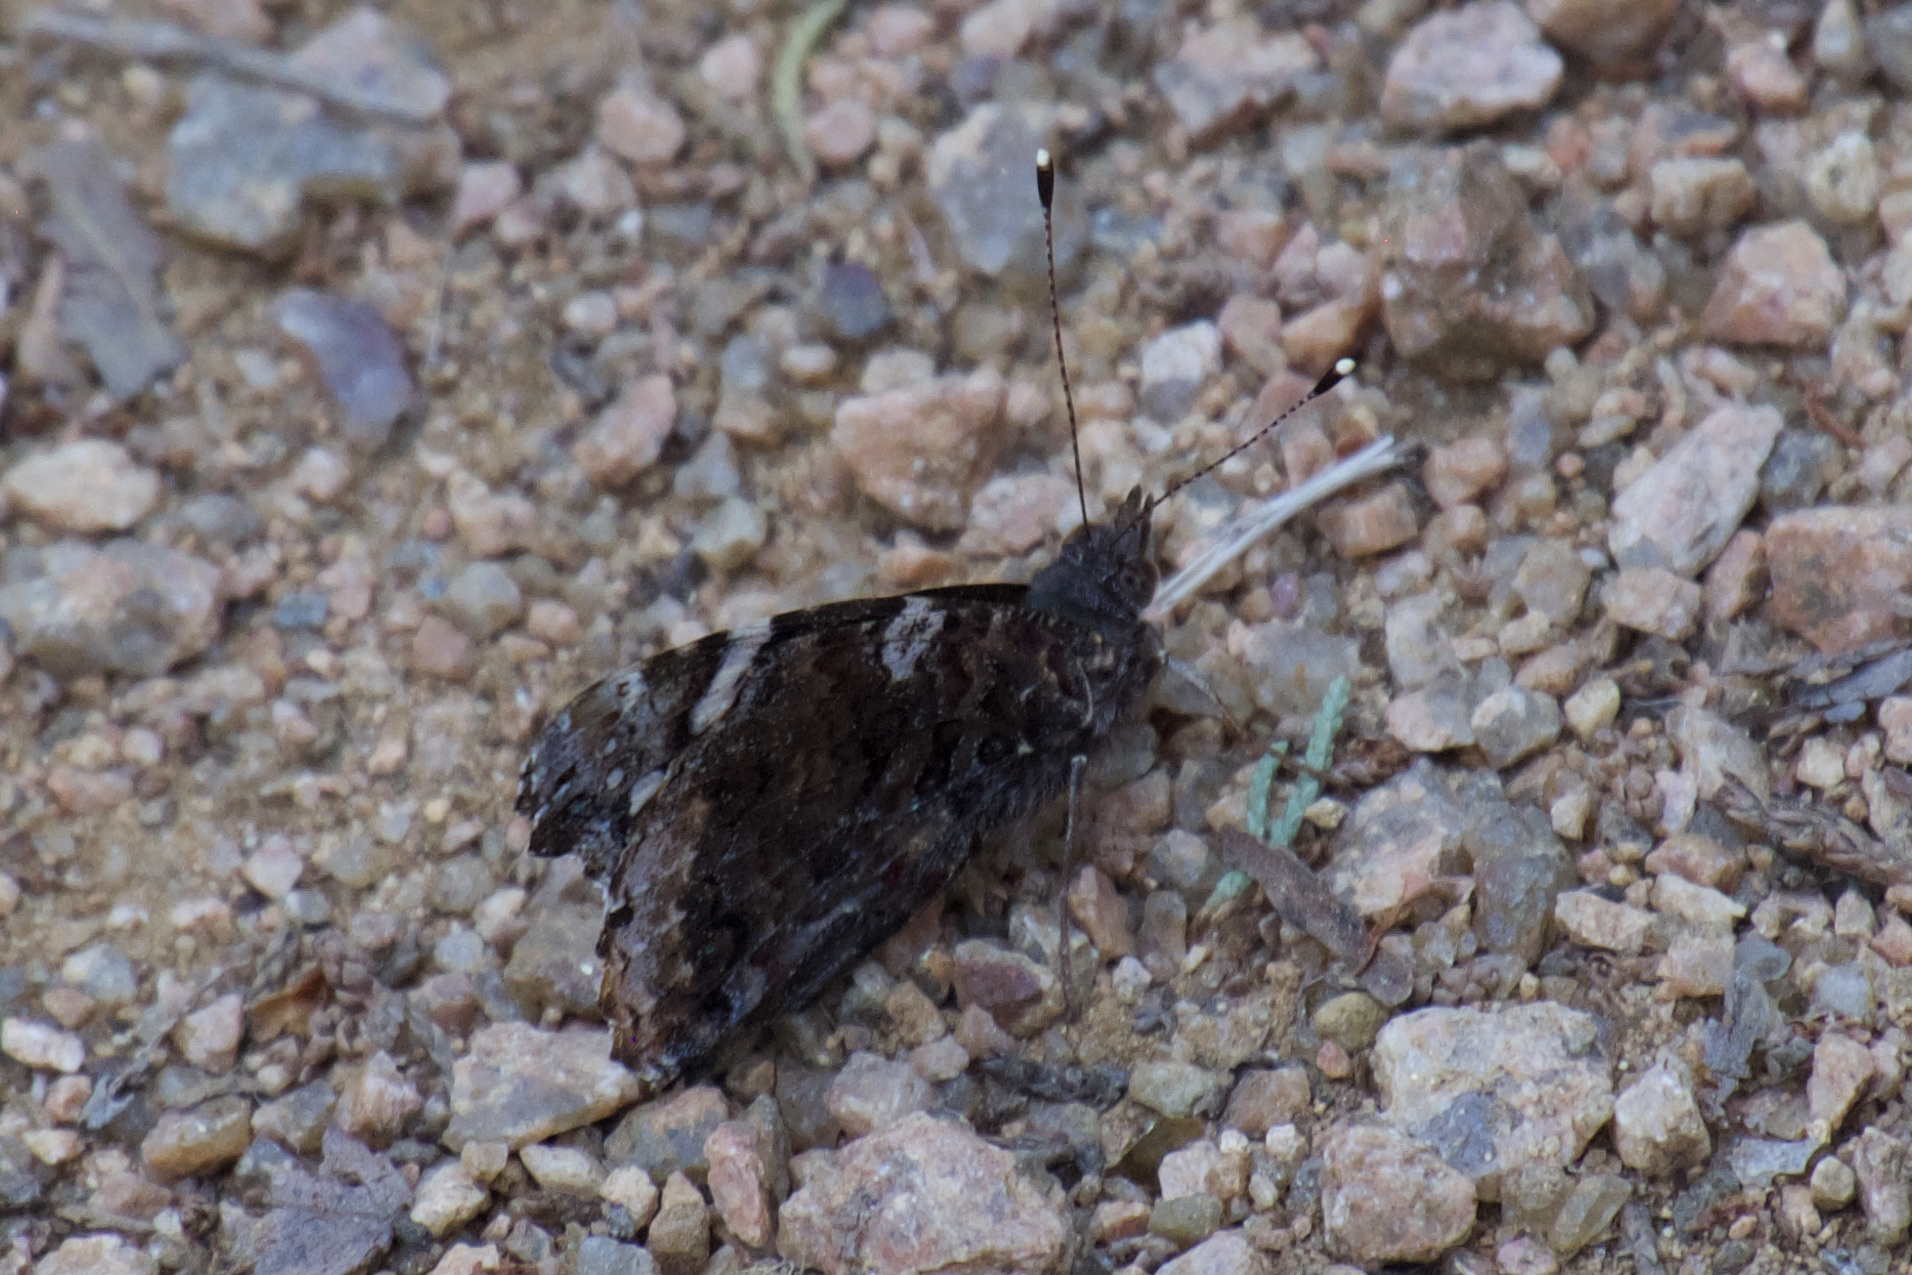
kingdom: Animalia
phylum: Arthropoda
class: Insecta
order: Lepidoptera
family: Nymphalidae
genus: Vanessa
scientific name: Vanessa atalanta
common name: Red admiral
